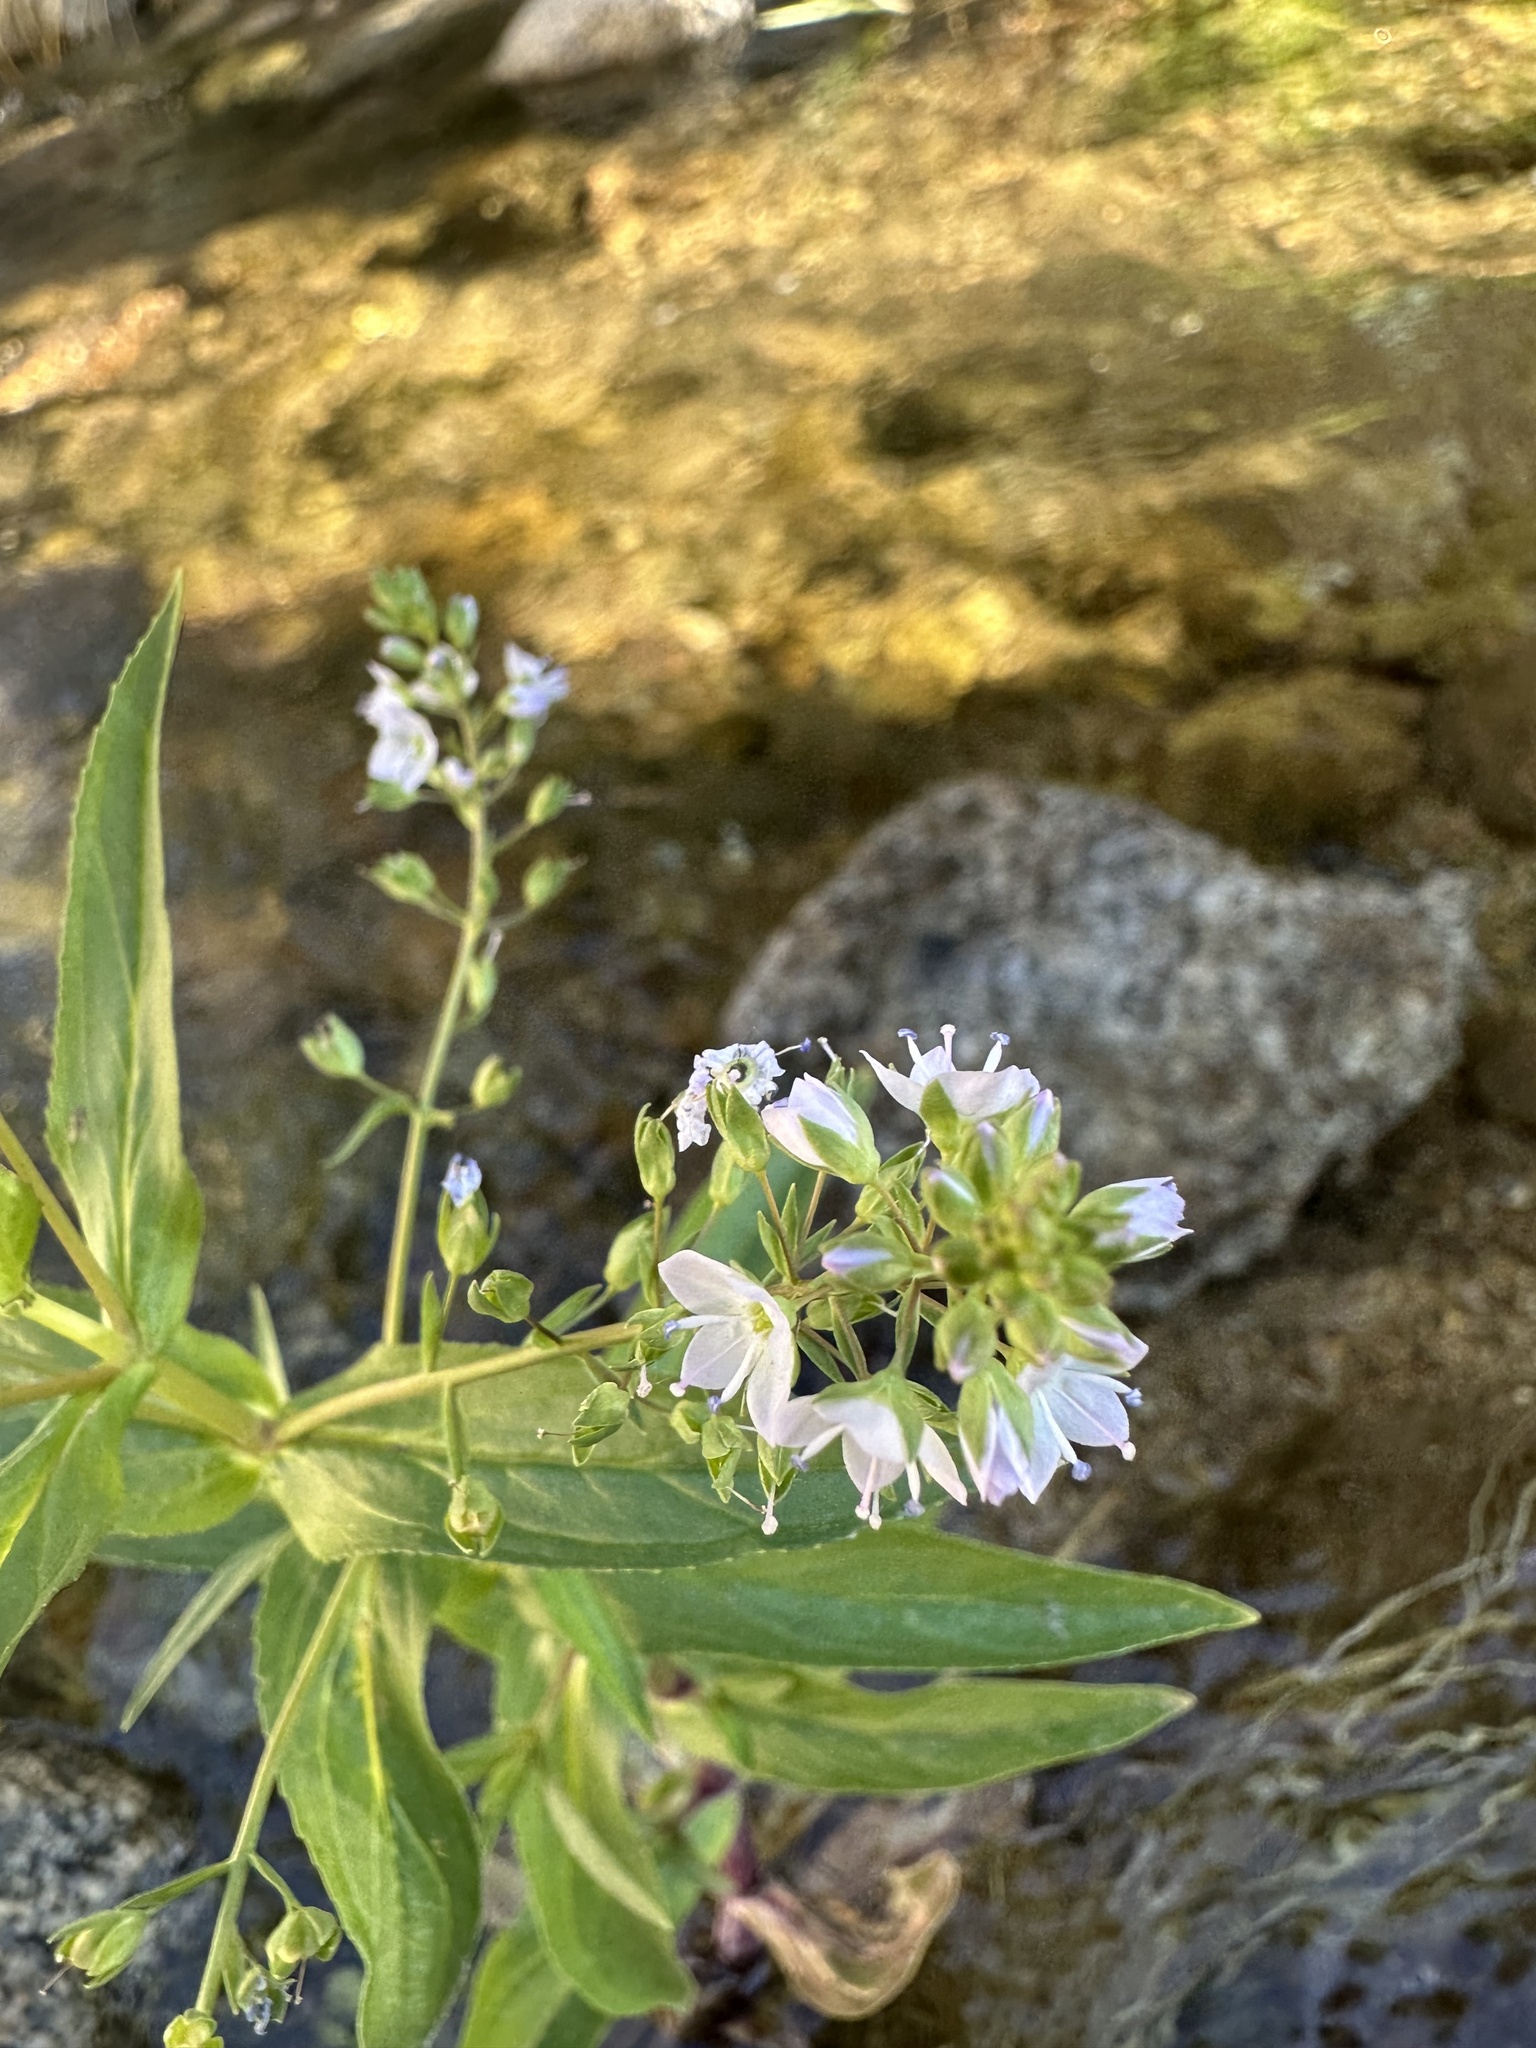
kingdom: Plantae
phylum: Tracheophyta
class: Magnoliopsida
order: Lamiales
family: Plantaginaceae
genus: Veronica
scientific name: Veronica anagallis-aquatica
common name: Water speedwell
